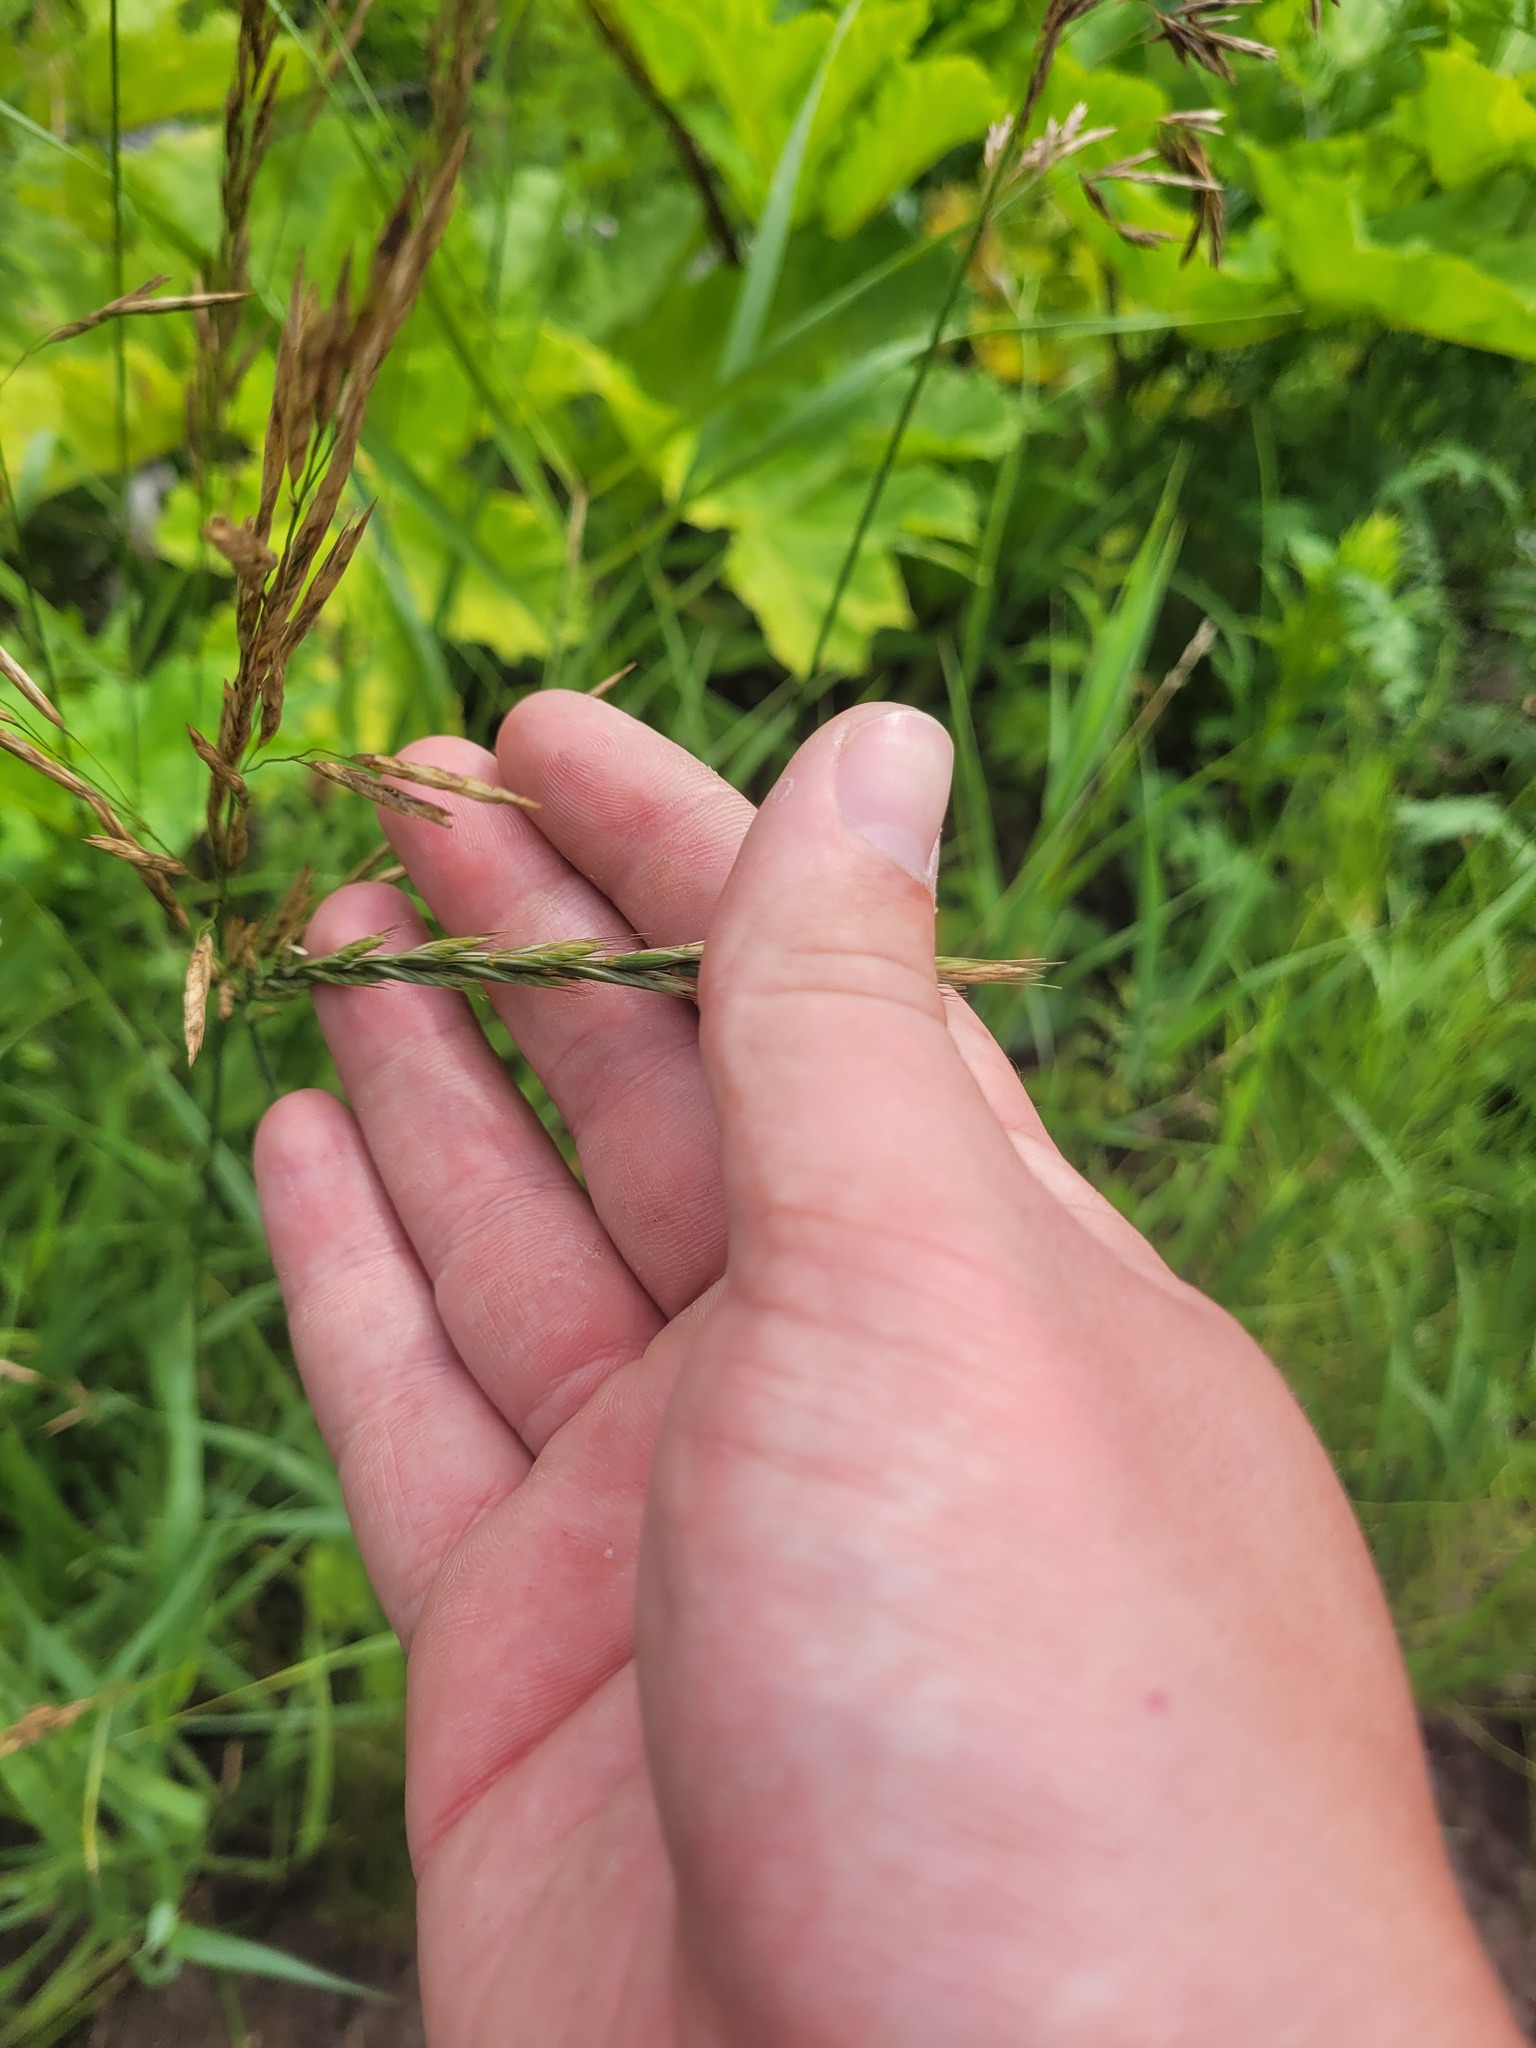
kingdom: Plantae
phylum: Tracheophyta
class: Liliopsida
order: Poales
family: Poaceae
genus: Elymus
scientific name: Elymus repens
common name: Quackgrass
